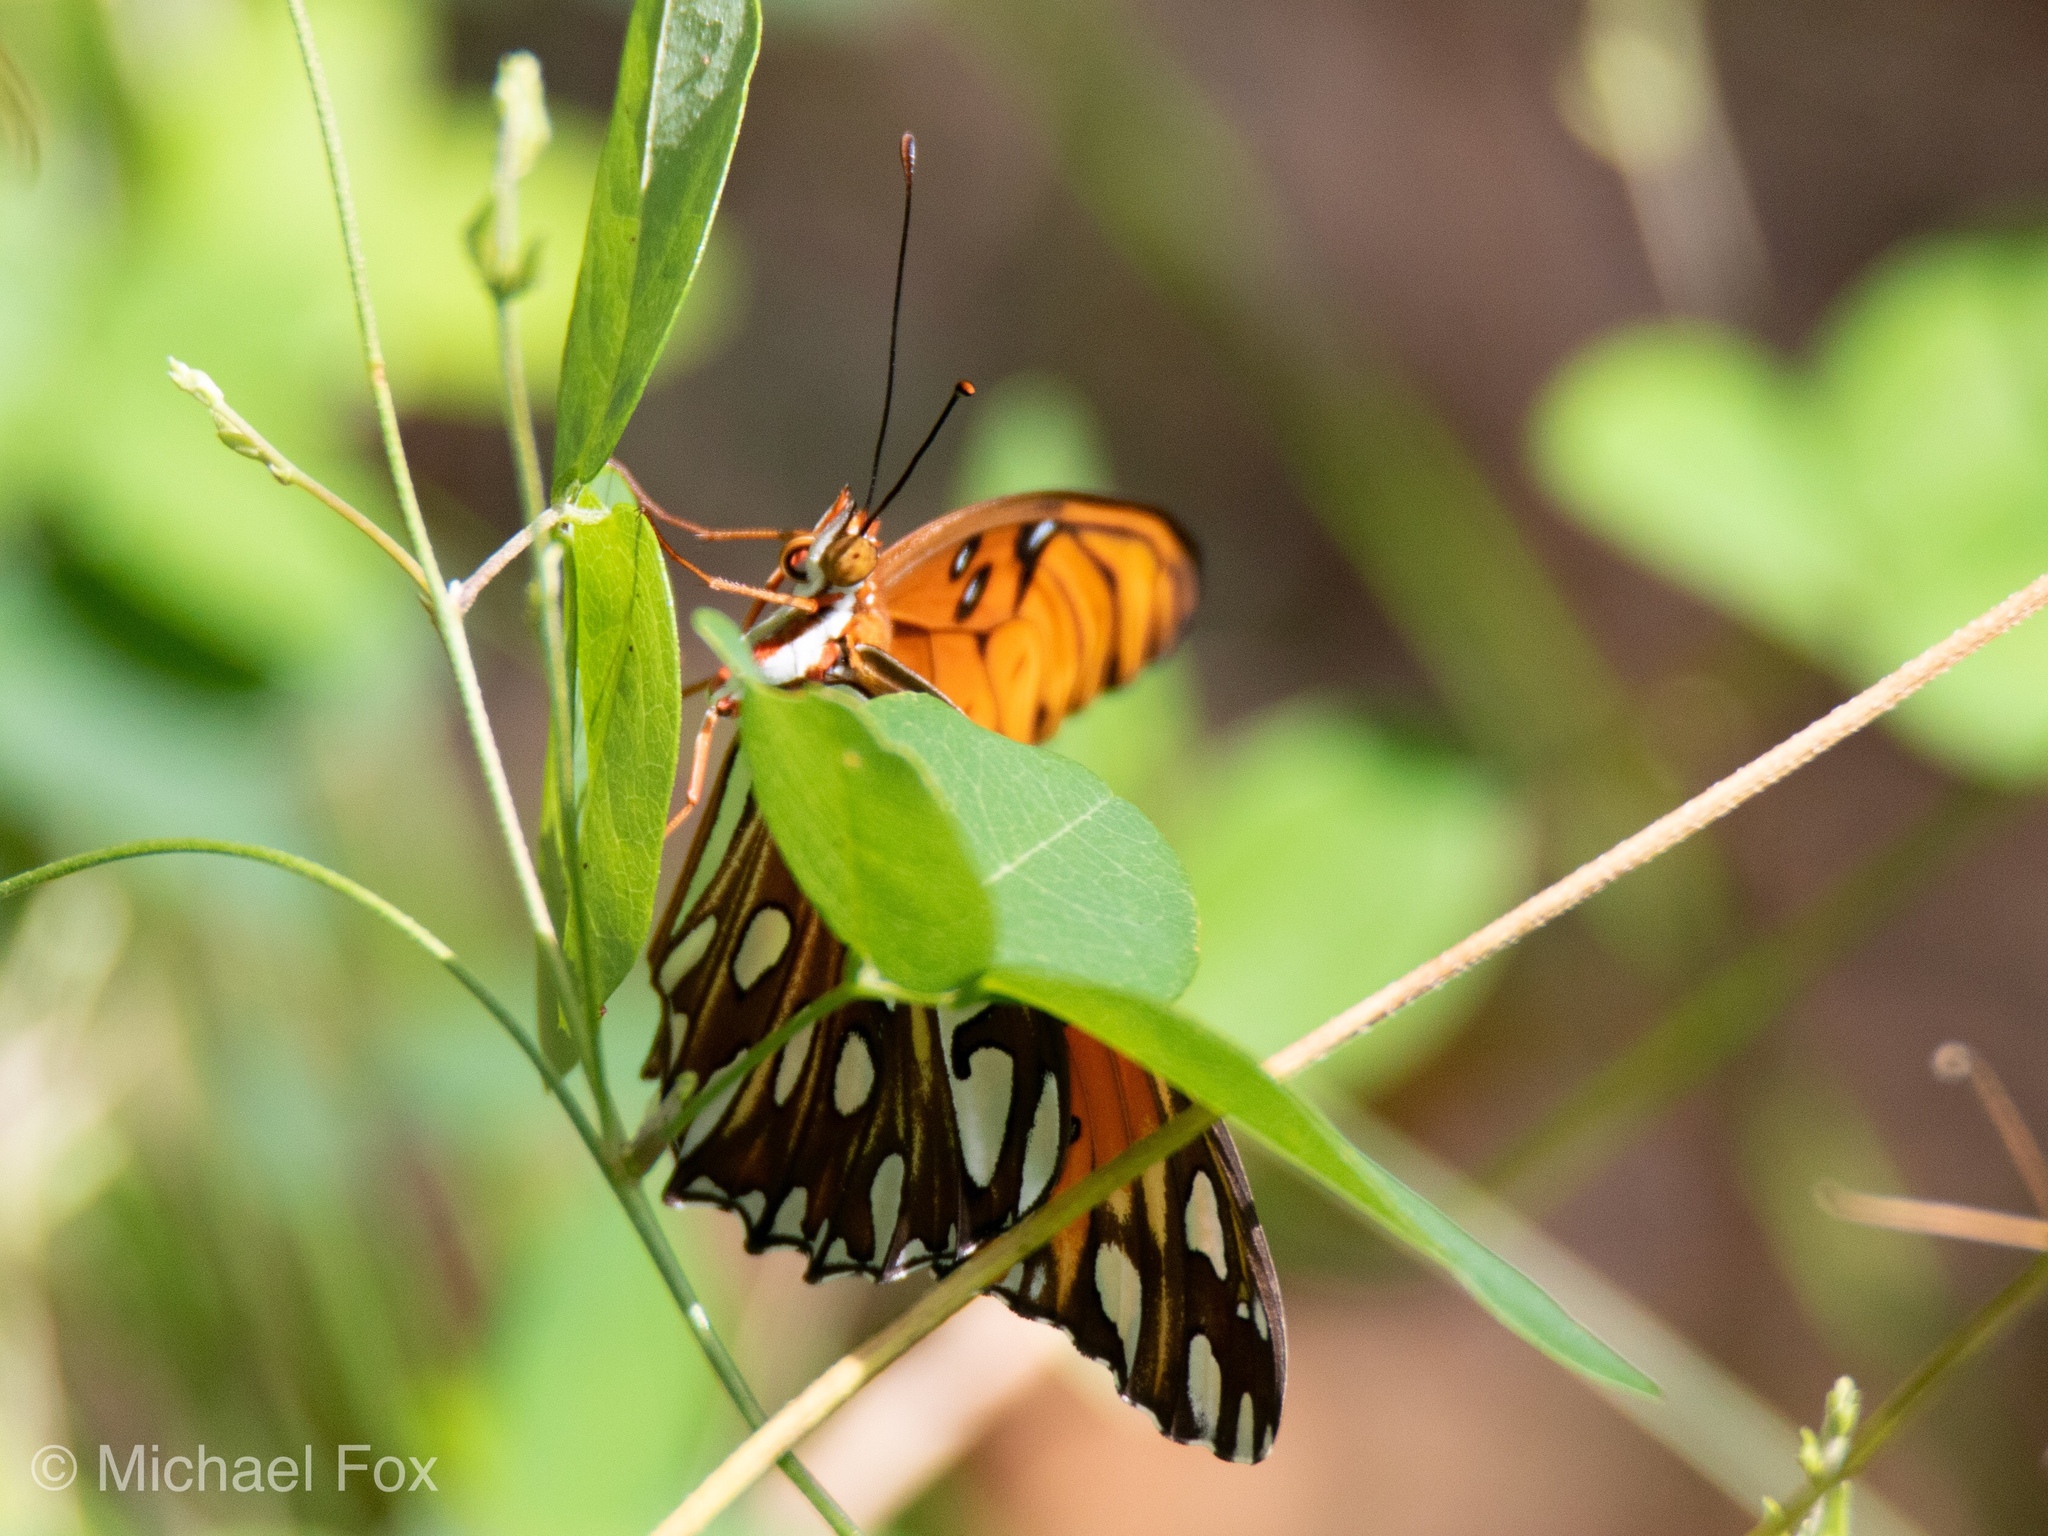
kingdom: Animalia
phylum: Arthropoda
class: Insecta
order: Lepidoptera
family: Nymphalidae
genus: Dione
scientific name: Dione vanillae
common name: Gulf fritillary
